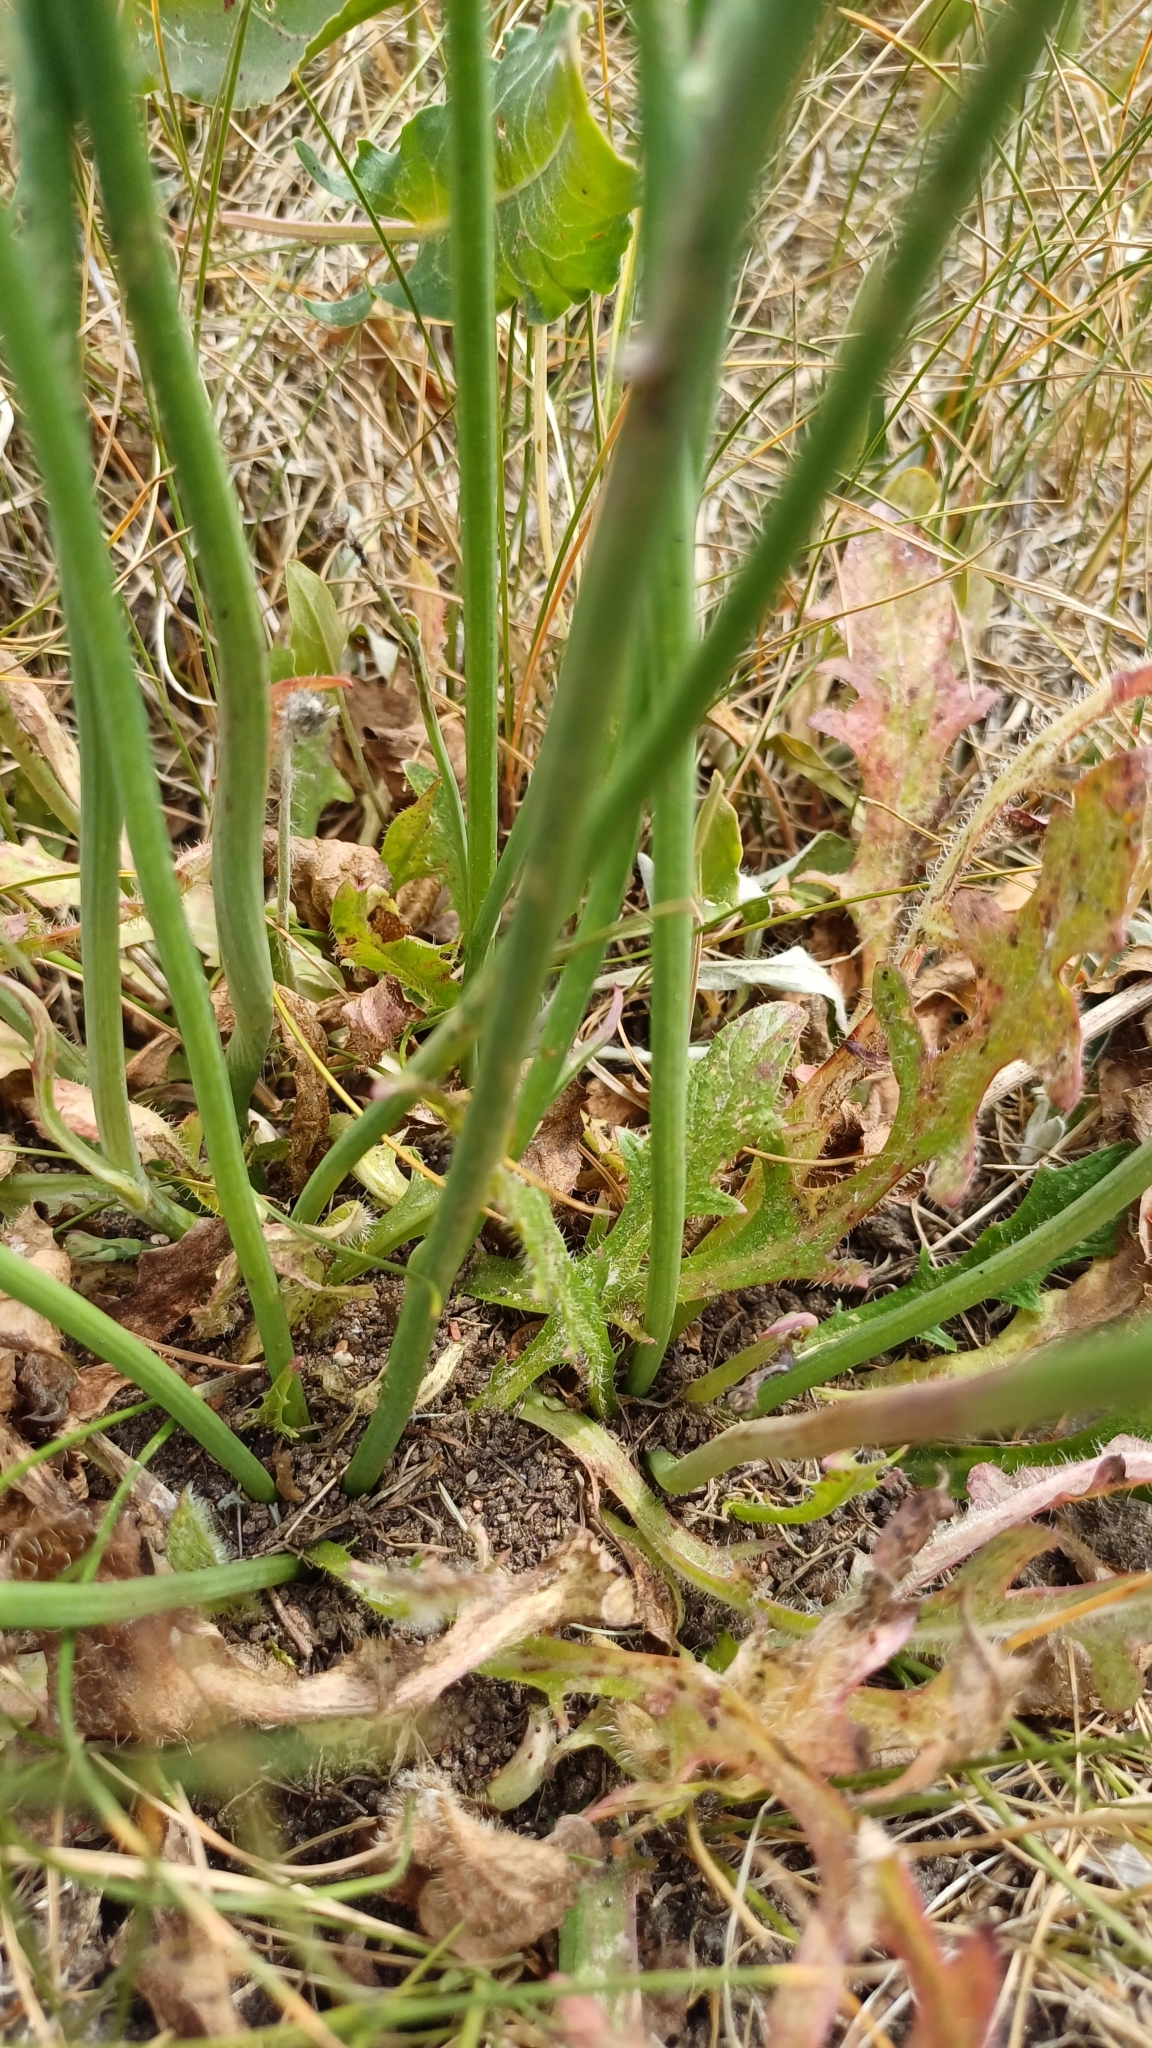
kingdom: Plantae
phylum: Tracheophyta
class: Magnoliopsida
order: Asterales
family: Asteraceae
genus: Hypochaeris
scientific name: Hypochaeris radicata
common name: Flatweed
